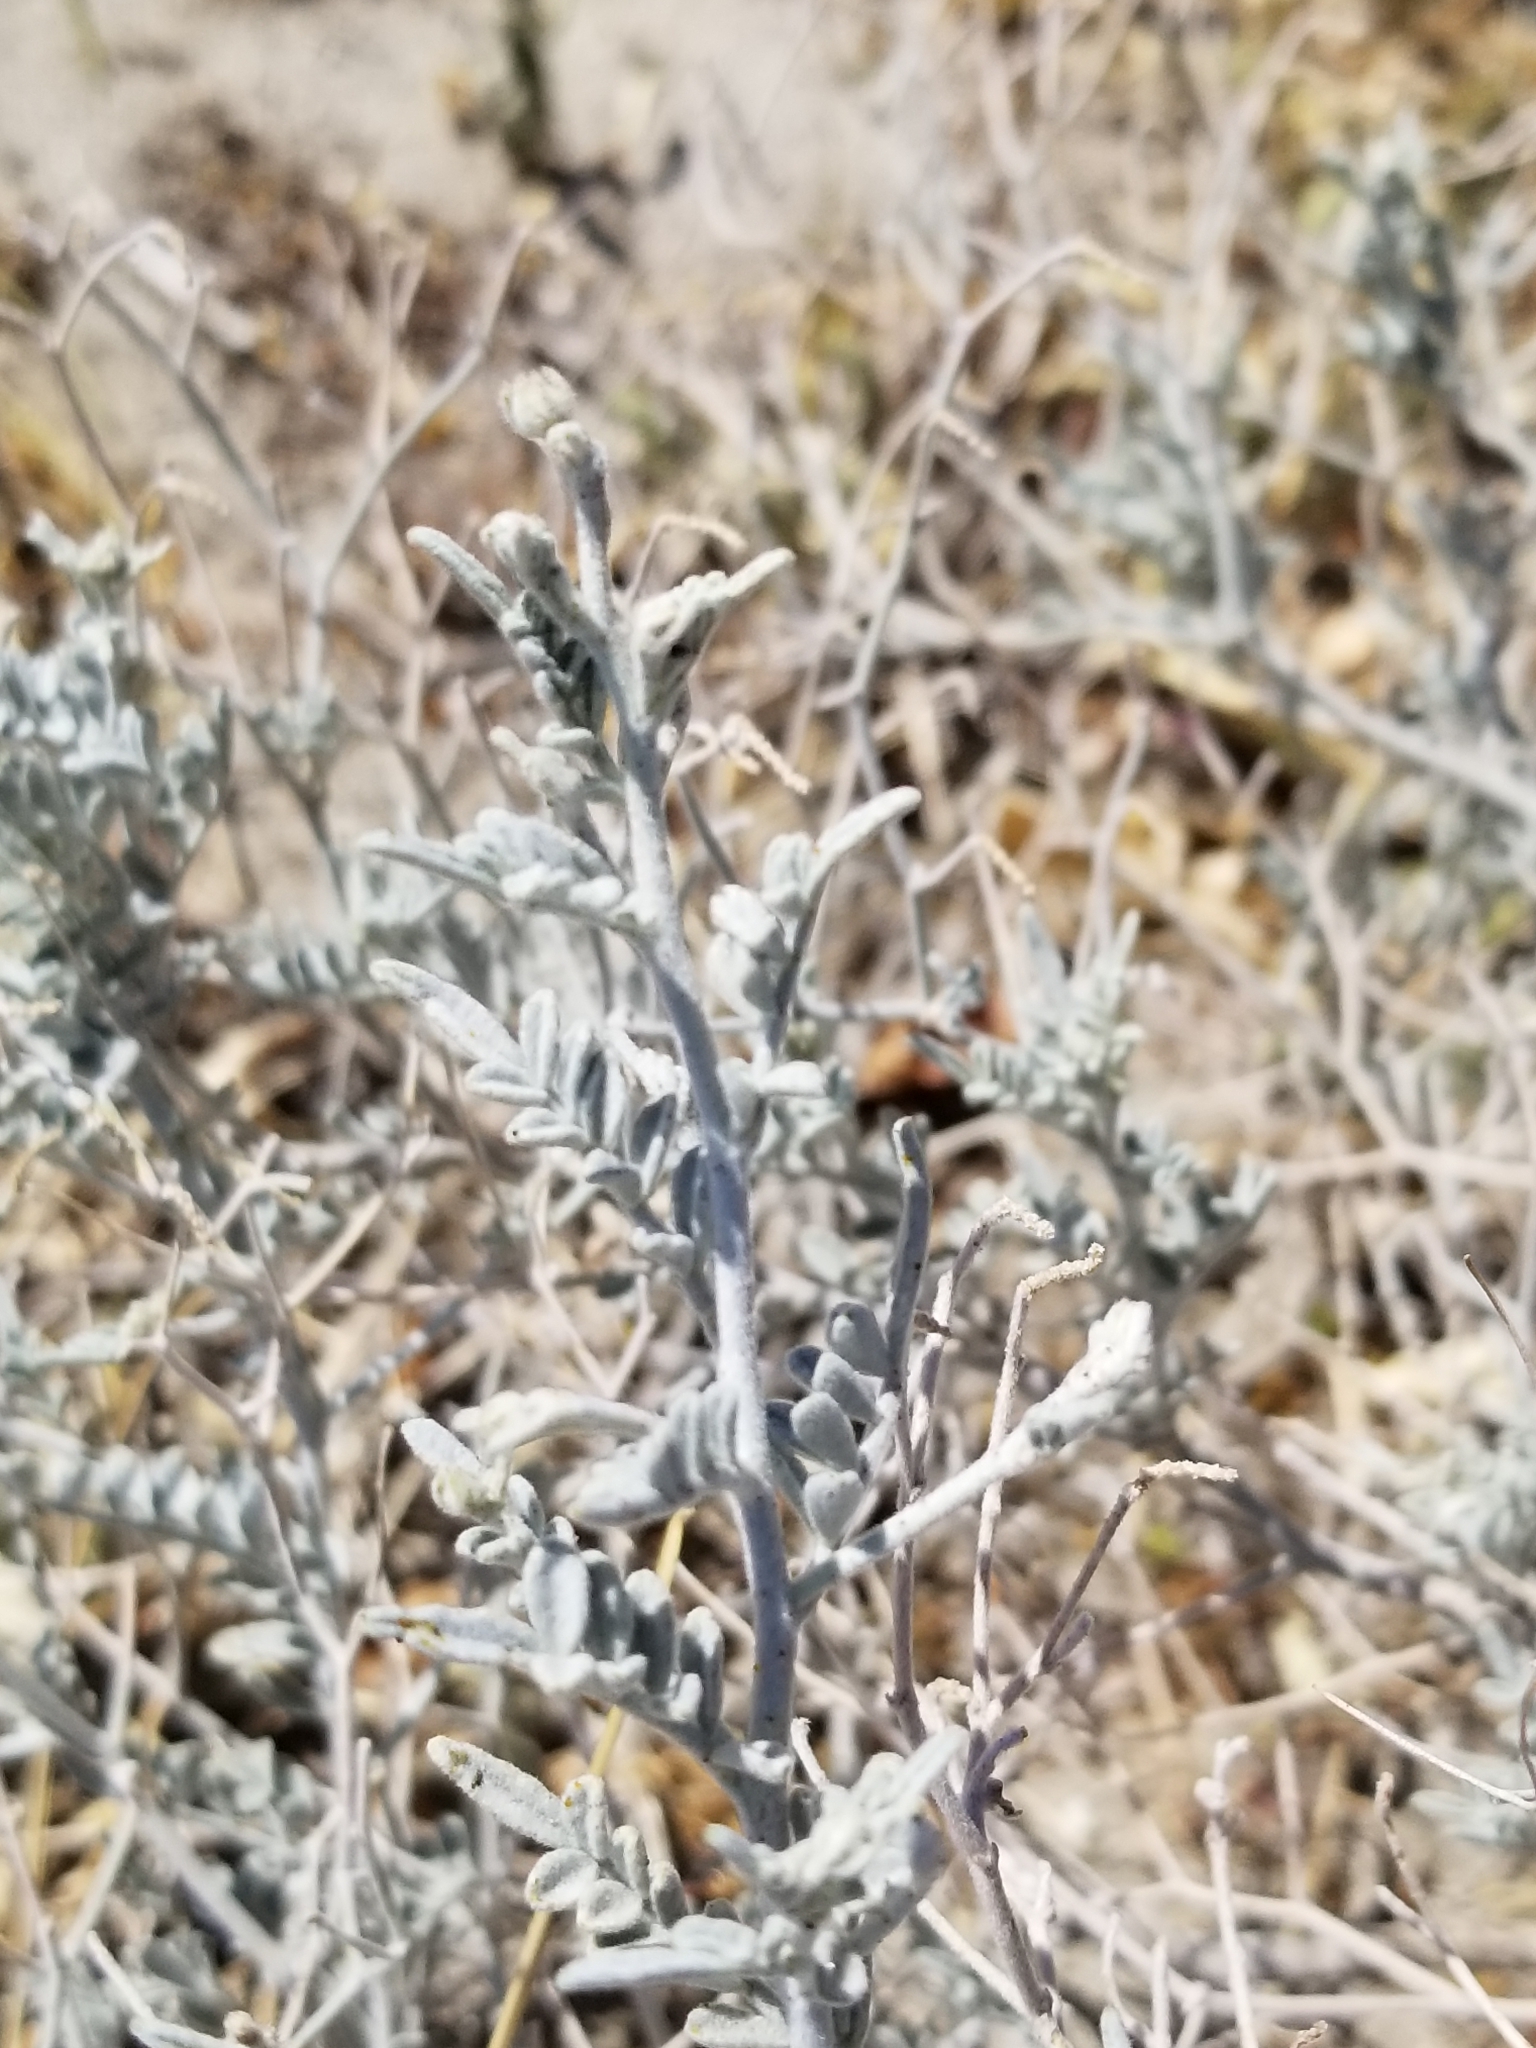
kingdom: Plantae
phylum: Tracheophyta
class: Magnoliopsida
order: Fabales
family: Fabaceae
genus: Psorothamnus
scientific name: Psorothamnus emoryi
